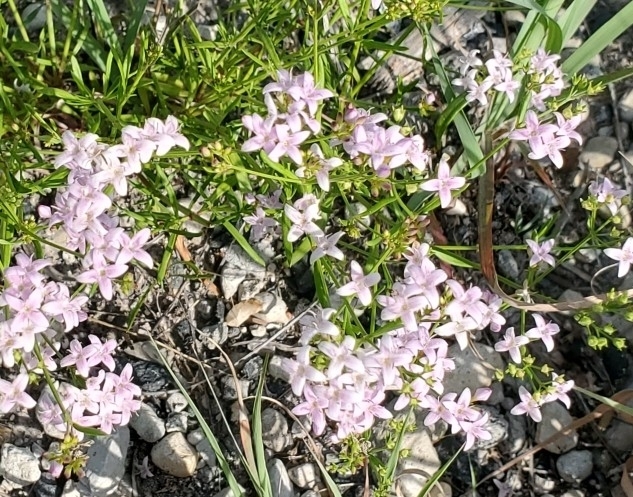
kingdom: Plantae
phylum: Tracheophyta
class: Magnoliopsida
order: Gentianales
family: Rubiaceae
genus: Stenaria
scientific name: Stenaria nigricans
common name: Diamondflowers
